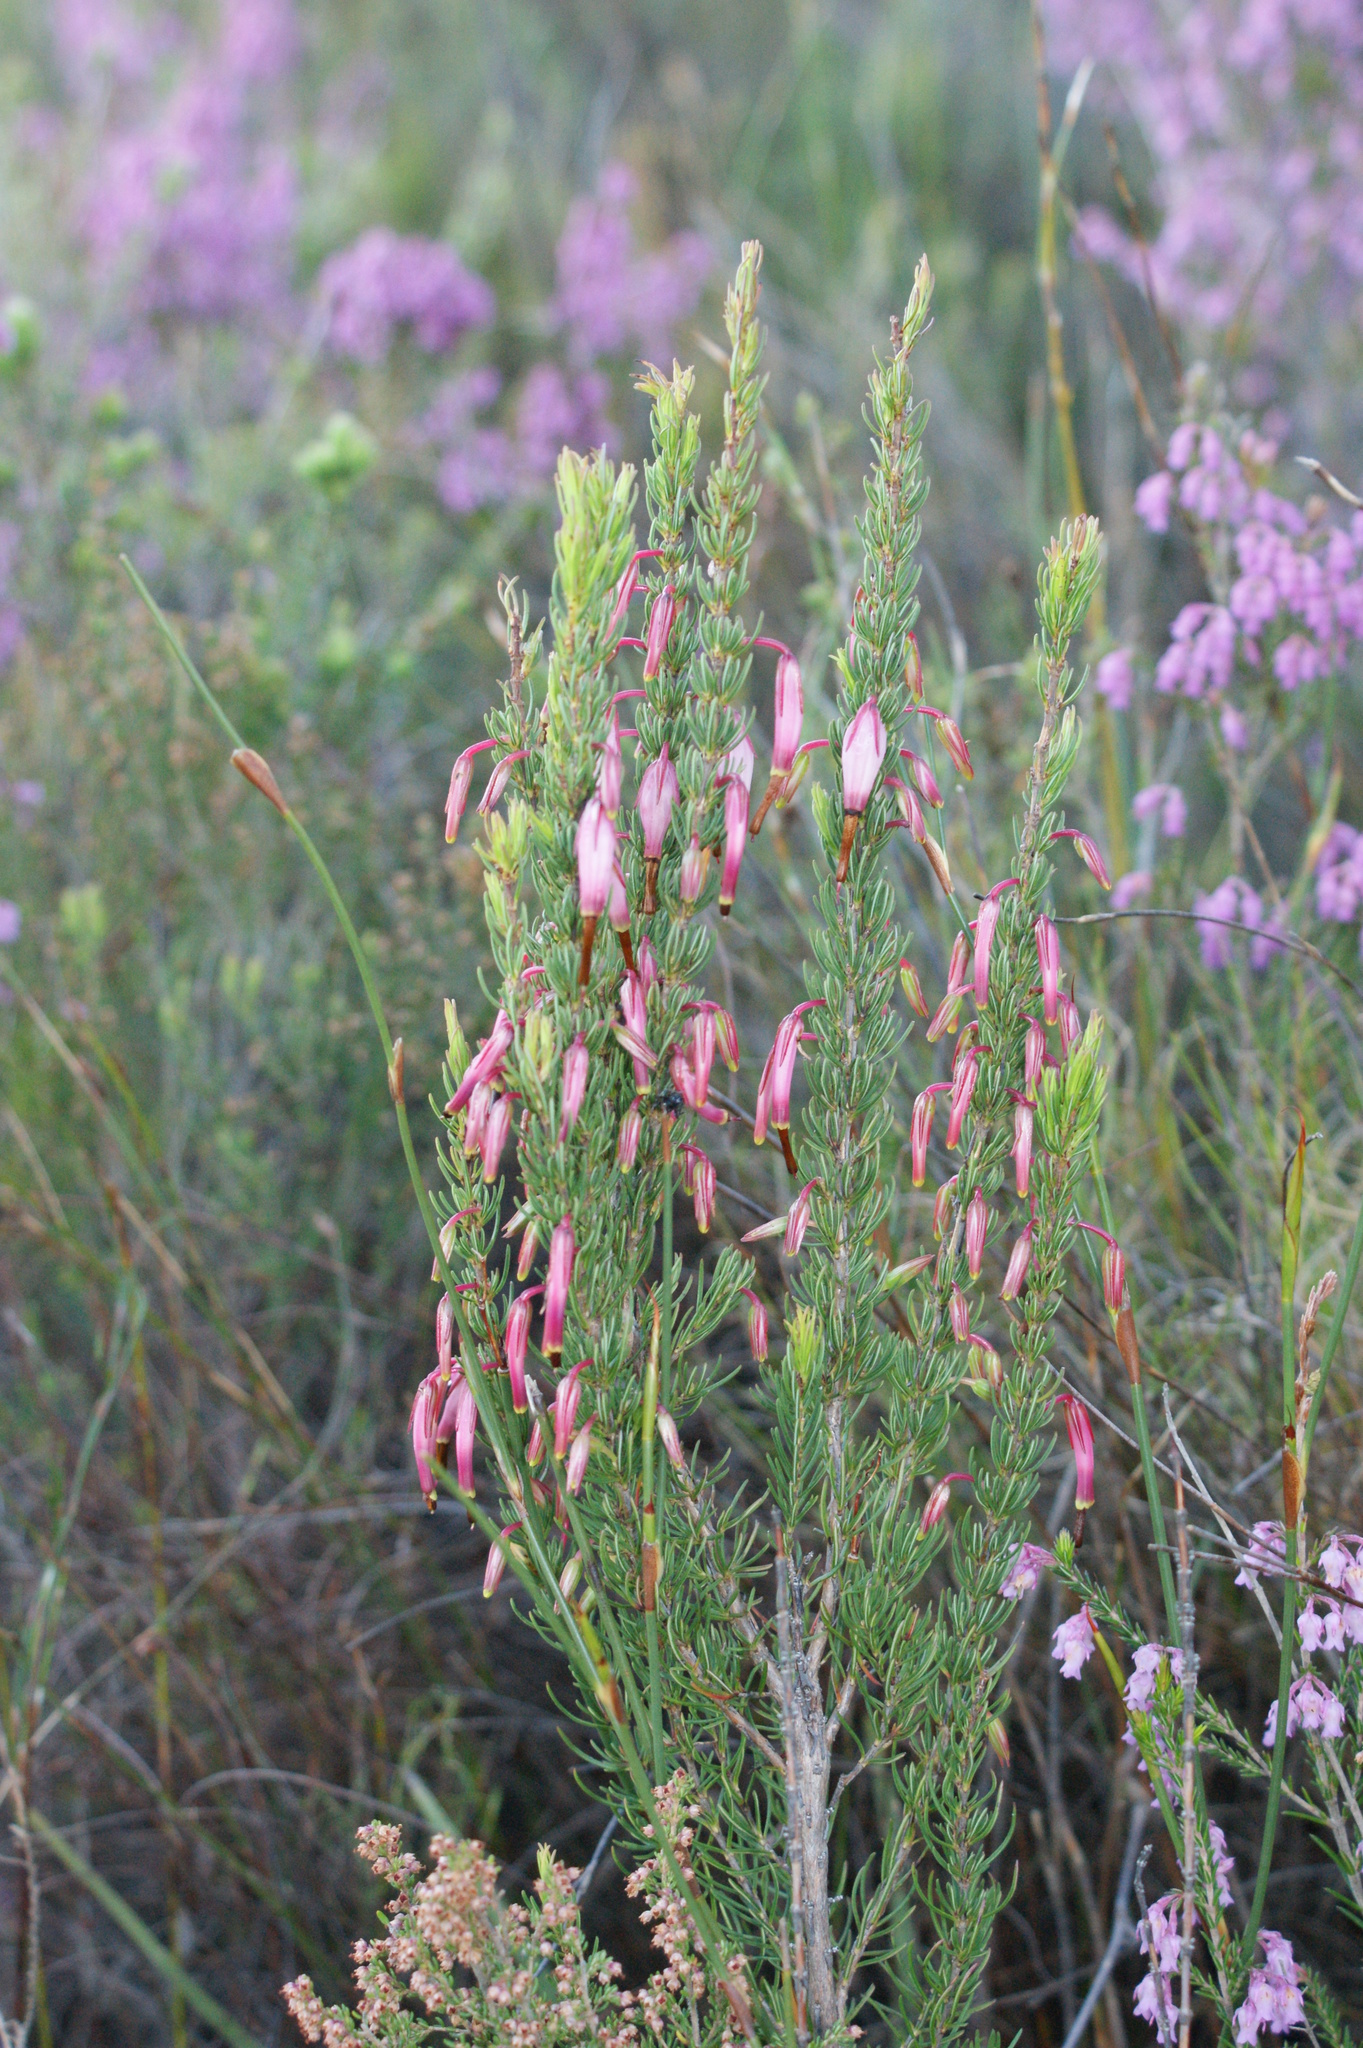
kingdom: Plantae
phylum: Tracheophyta
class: Magnoliopsida
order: Ericales
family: Ericaceae
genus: Erica
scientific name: Erica plukenetii
